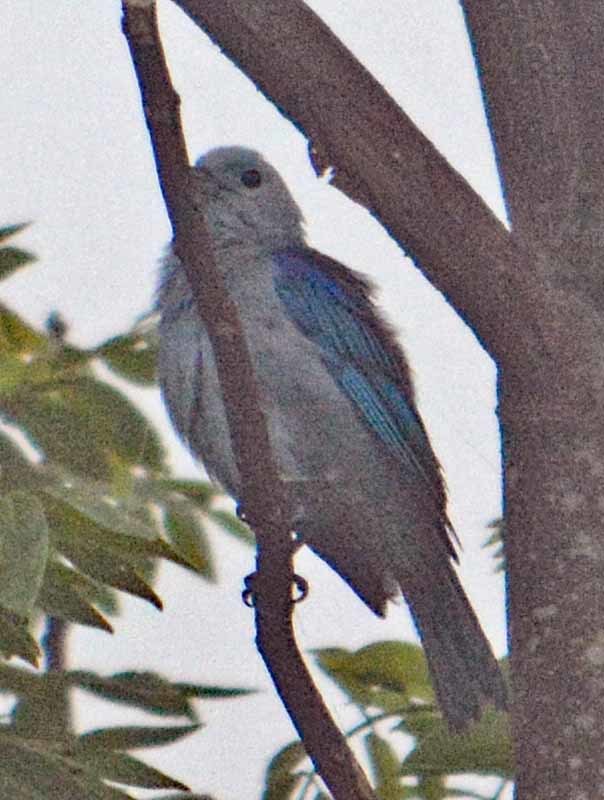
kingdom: Animalia
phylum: Chordata
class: Aves
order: Passeriformes
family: Thraupidae
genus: Thraupis
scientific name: Thraupis episcopus
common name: Blue-grey tanager
